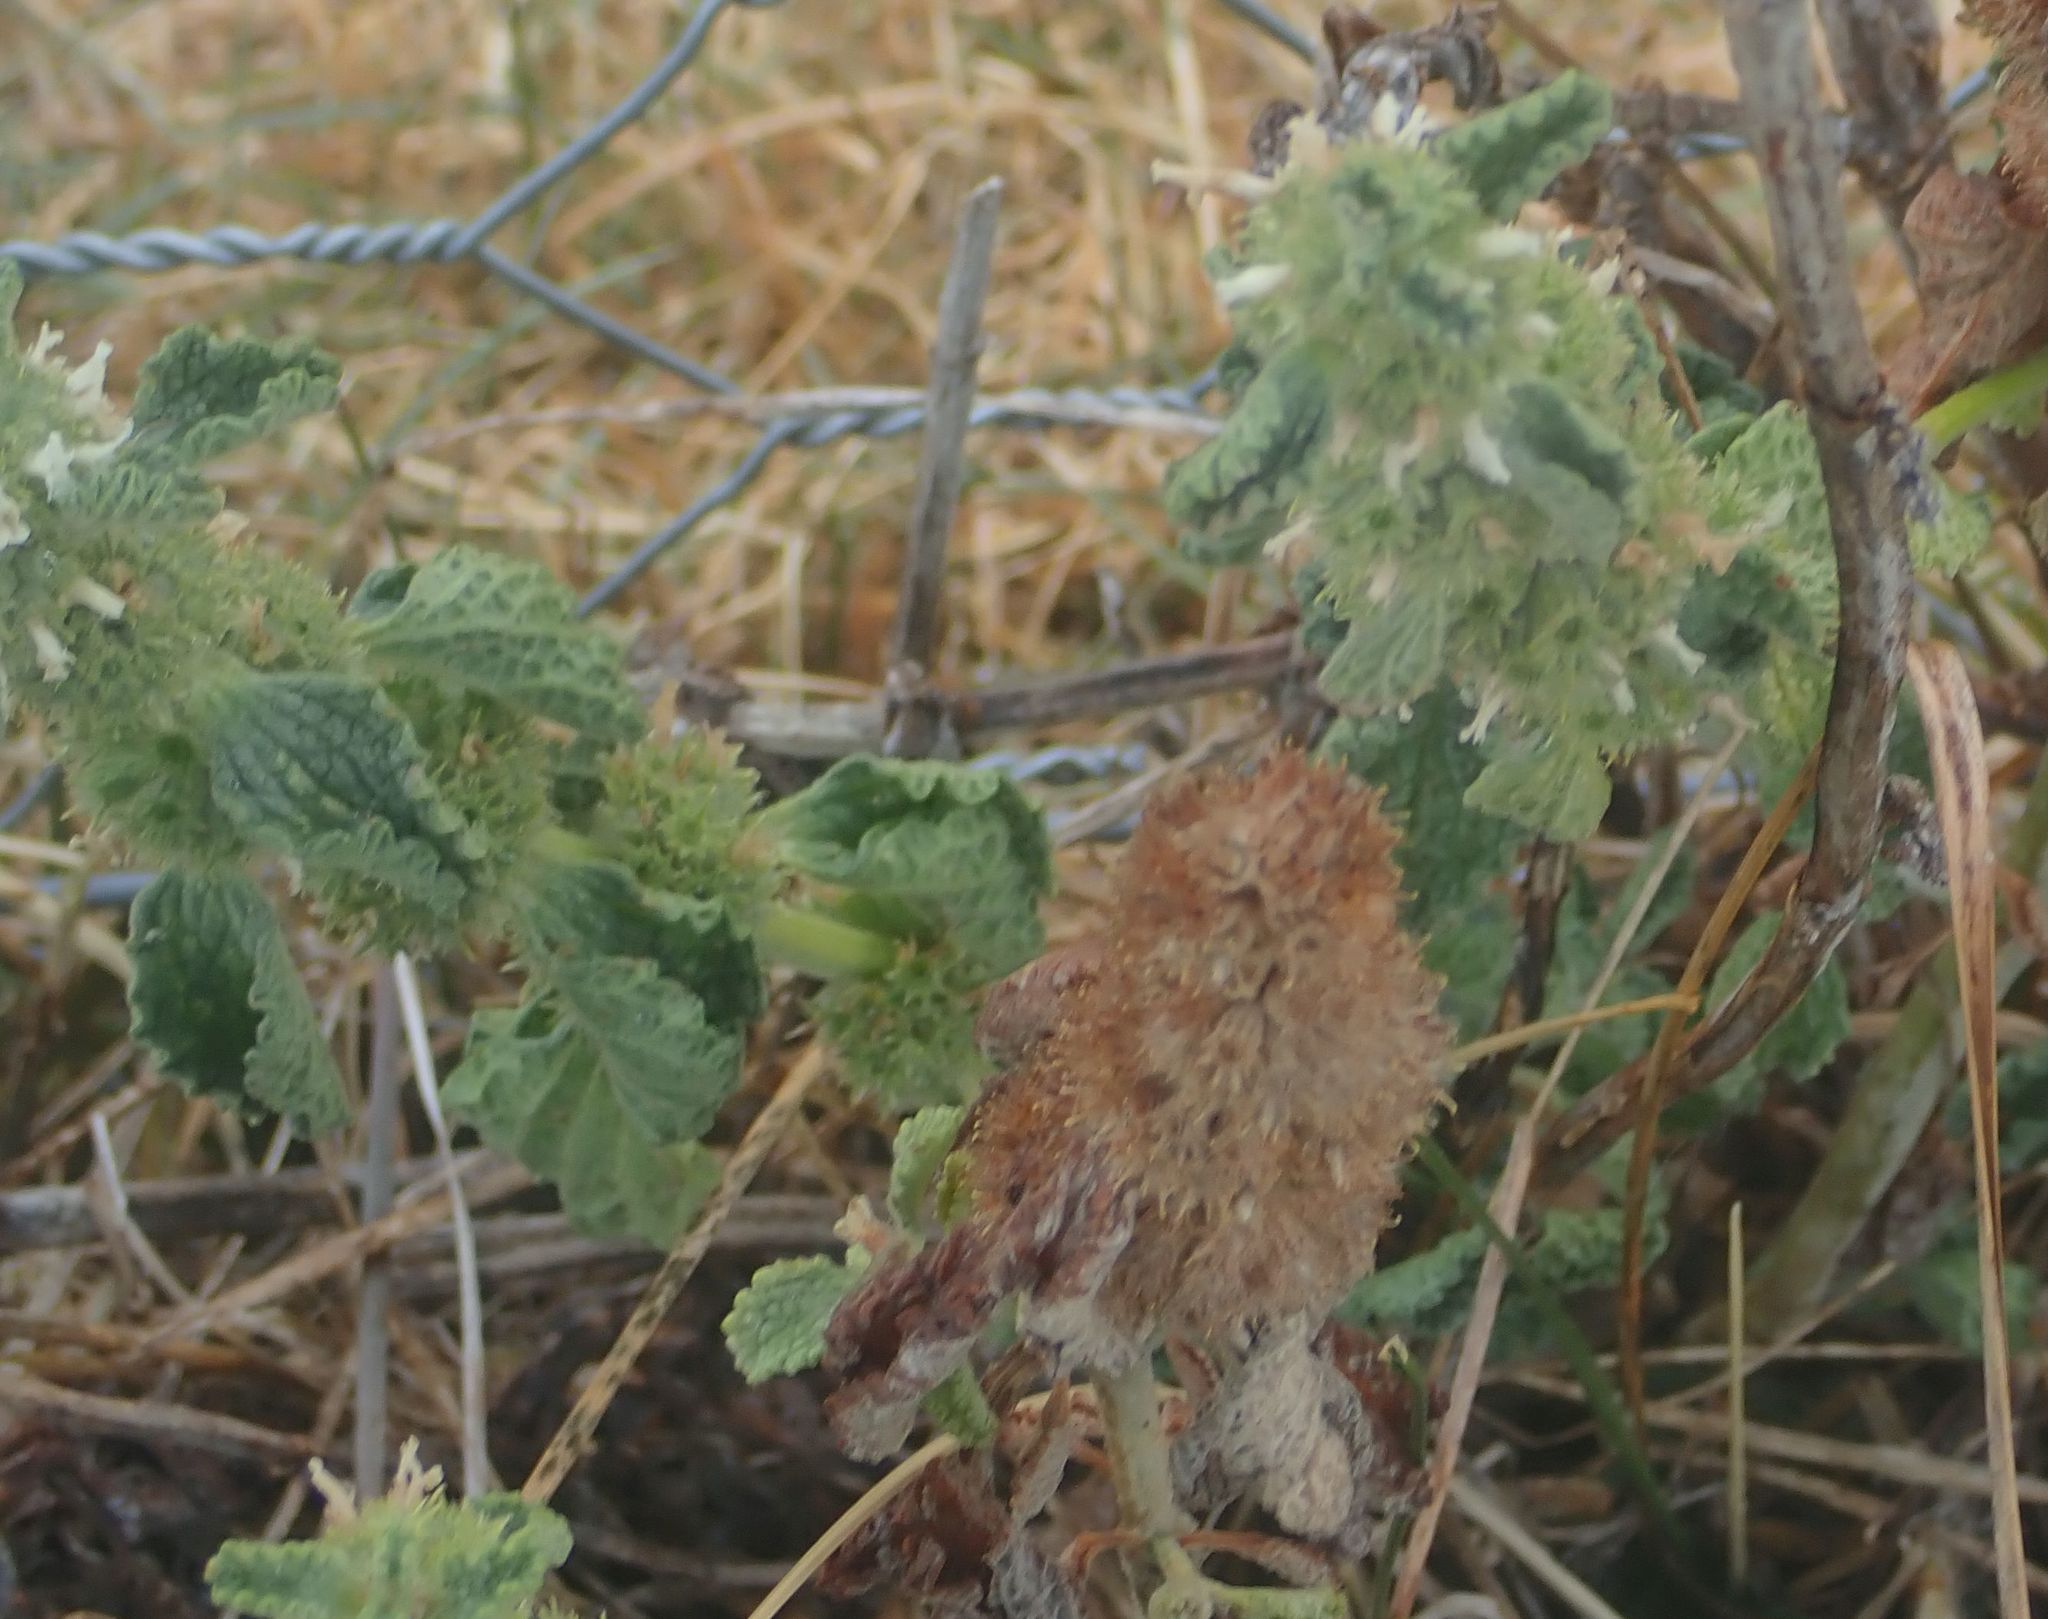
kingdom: Plantae
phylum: Tracheophyta
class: Magnoliopsida
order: Lamiales
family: Lamiaceae
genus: Marrubium
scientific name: Marrubium vulgare
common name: Horehound
